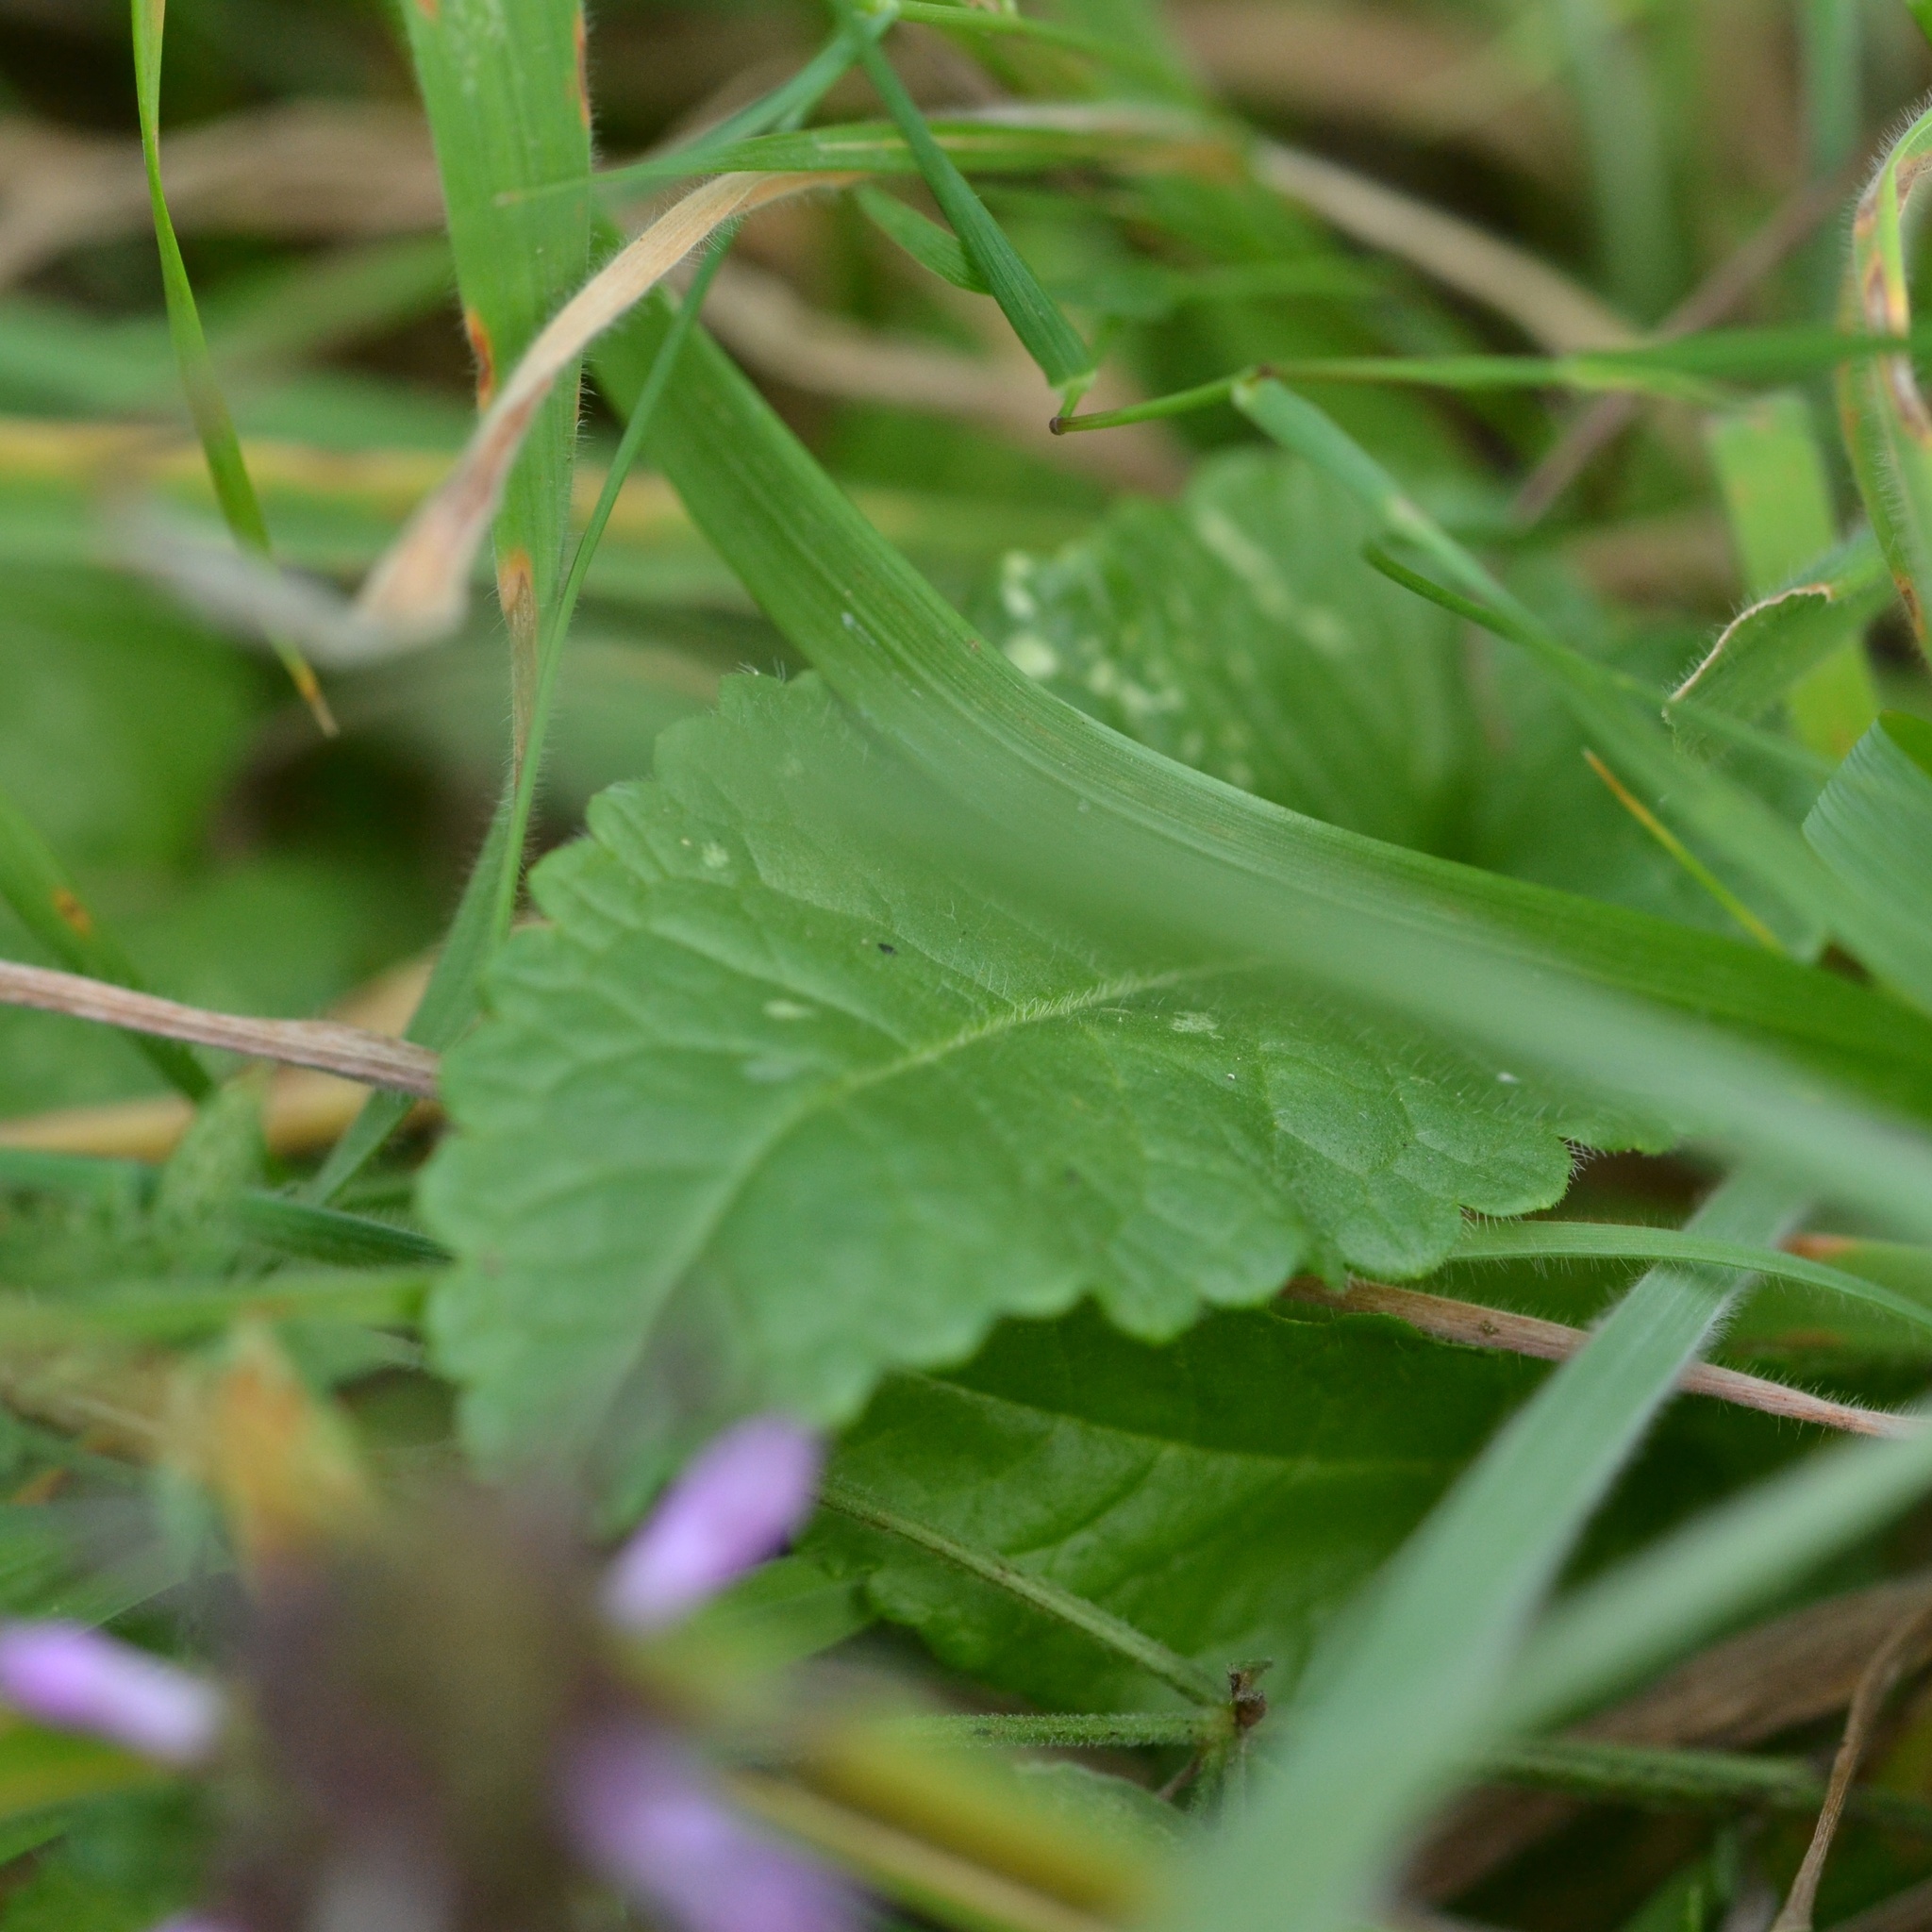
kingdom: Plantae
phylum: Tracheophyta
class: Magnoliopsida
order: Lamiales
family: Lamiaceae
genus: Betonica
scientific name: Betonica officinalis
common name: Bishop's-wort
